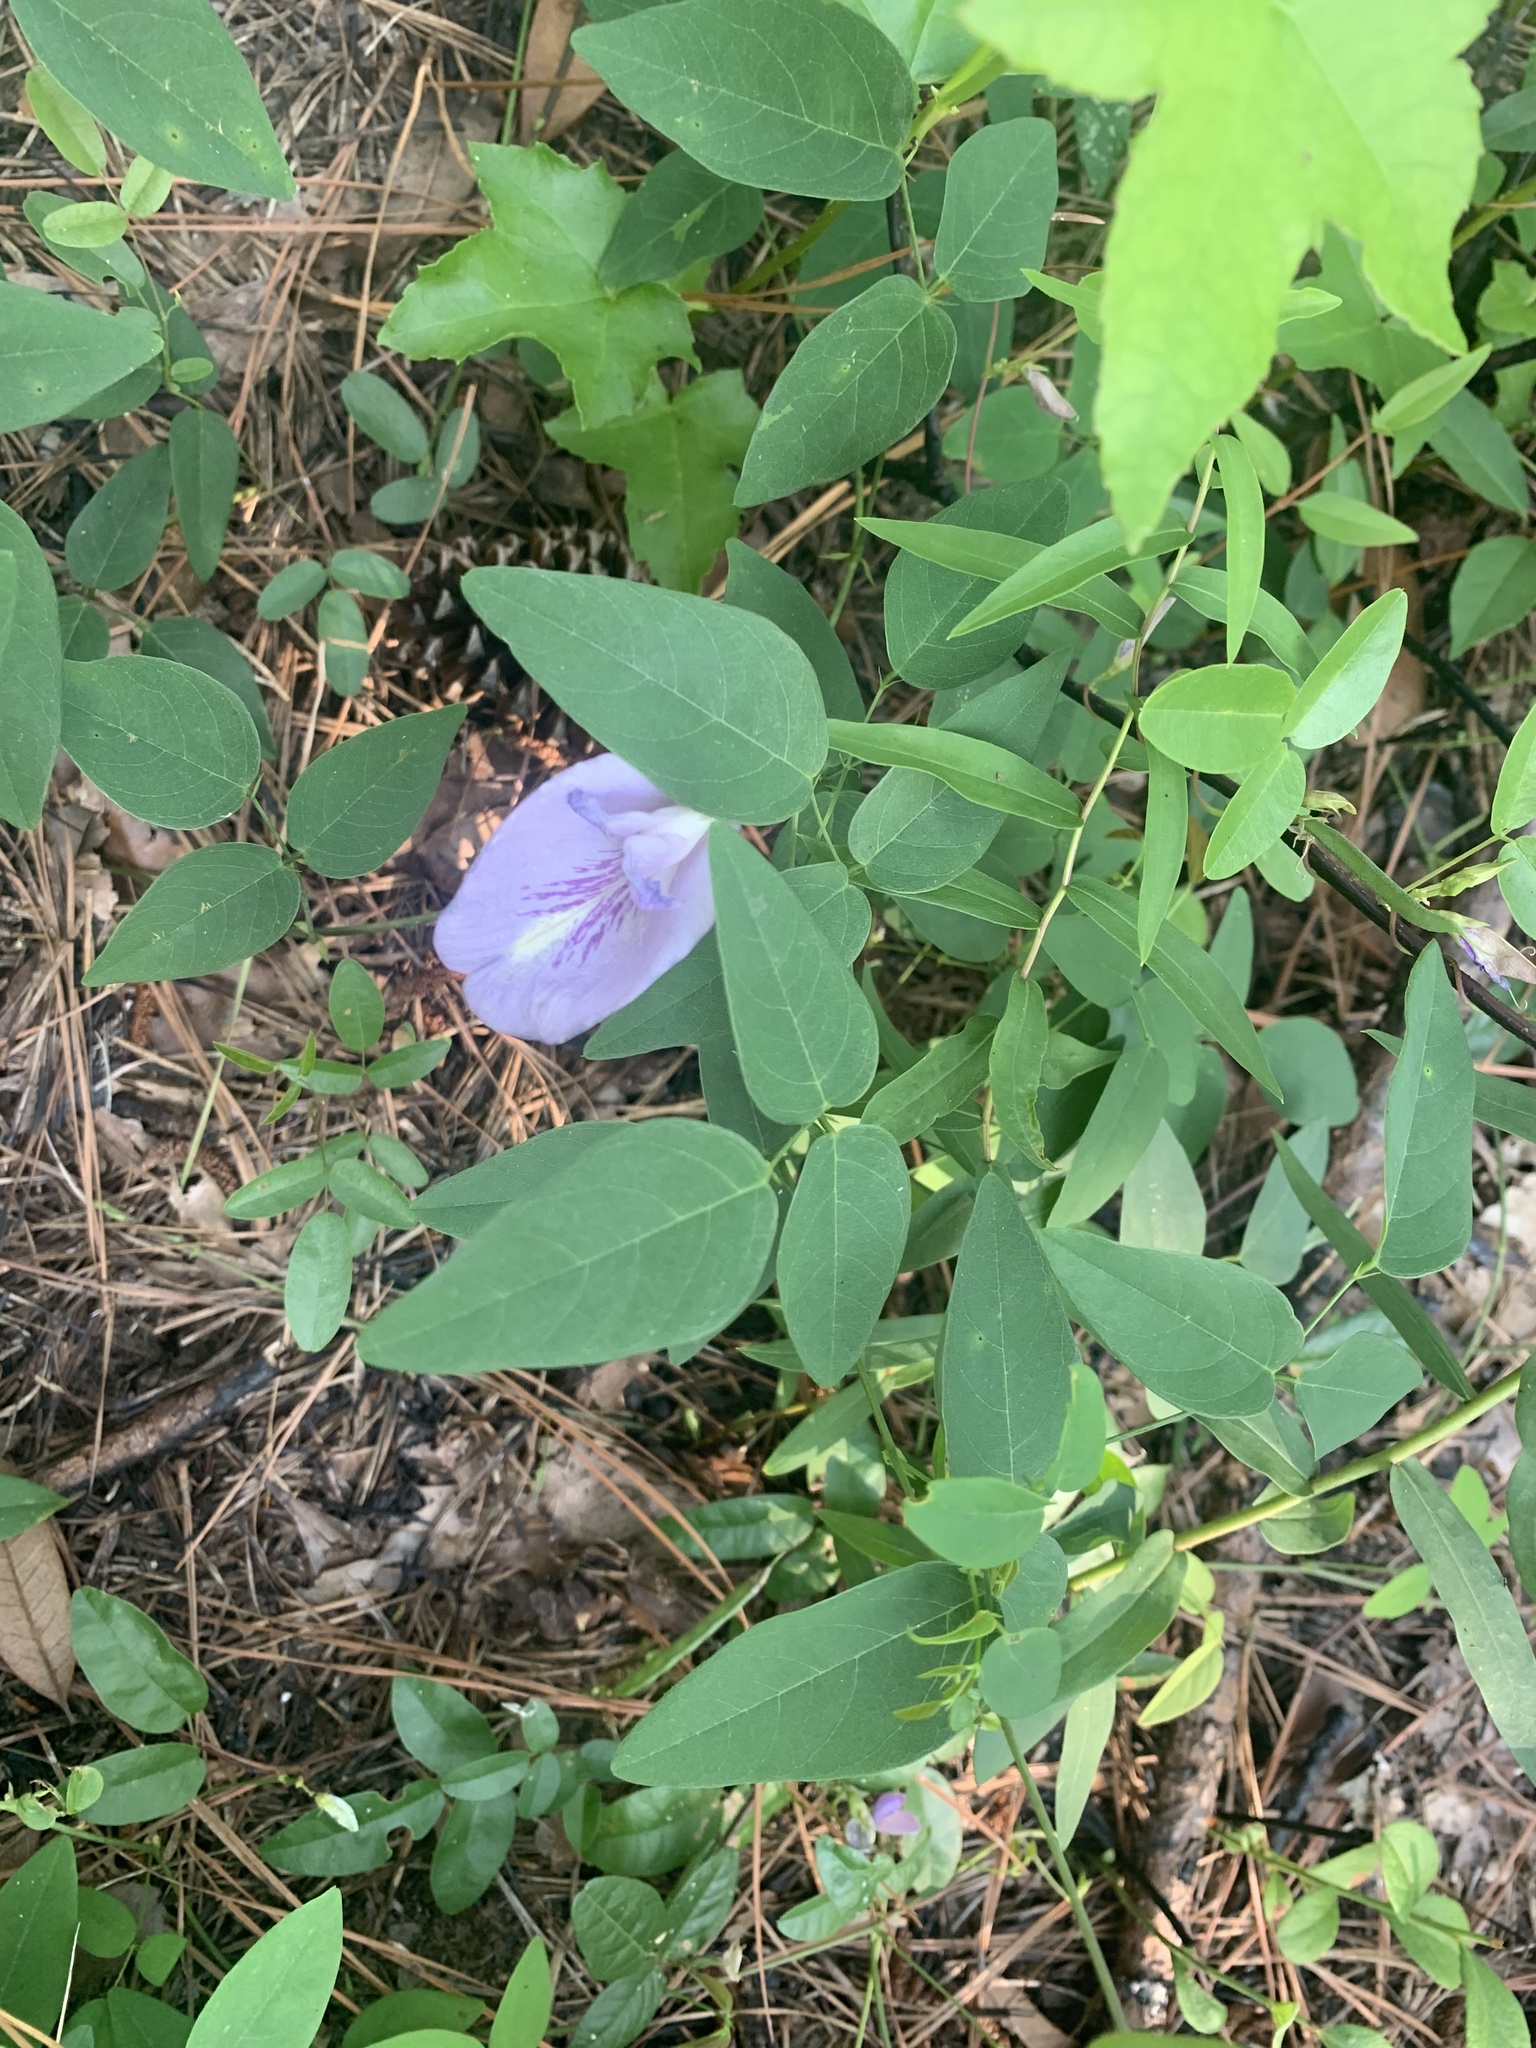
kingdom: Plantae
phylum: Tracheophyta
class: Magnoliopsida
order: Fabales
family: Fabaceae
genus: Clitoria
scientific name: Clitoria mariana
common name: Butterfly-pea
